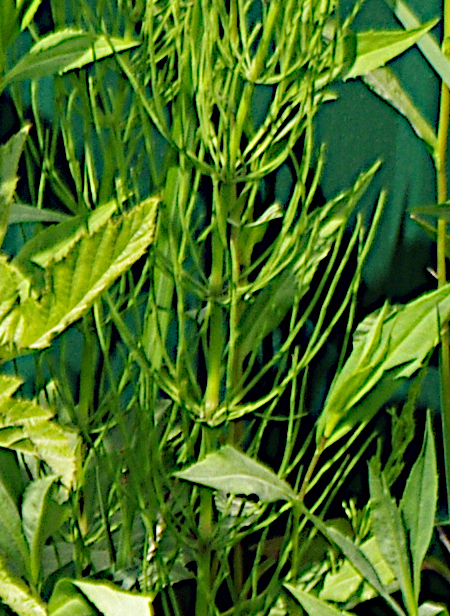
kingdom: Plantae
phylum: Tracheophyta
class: Polypodiopsida
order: Equisetales
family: Equisetaceae
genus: Equisetum
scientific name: Equisetum arvense
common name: Field horsetail
